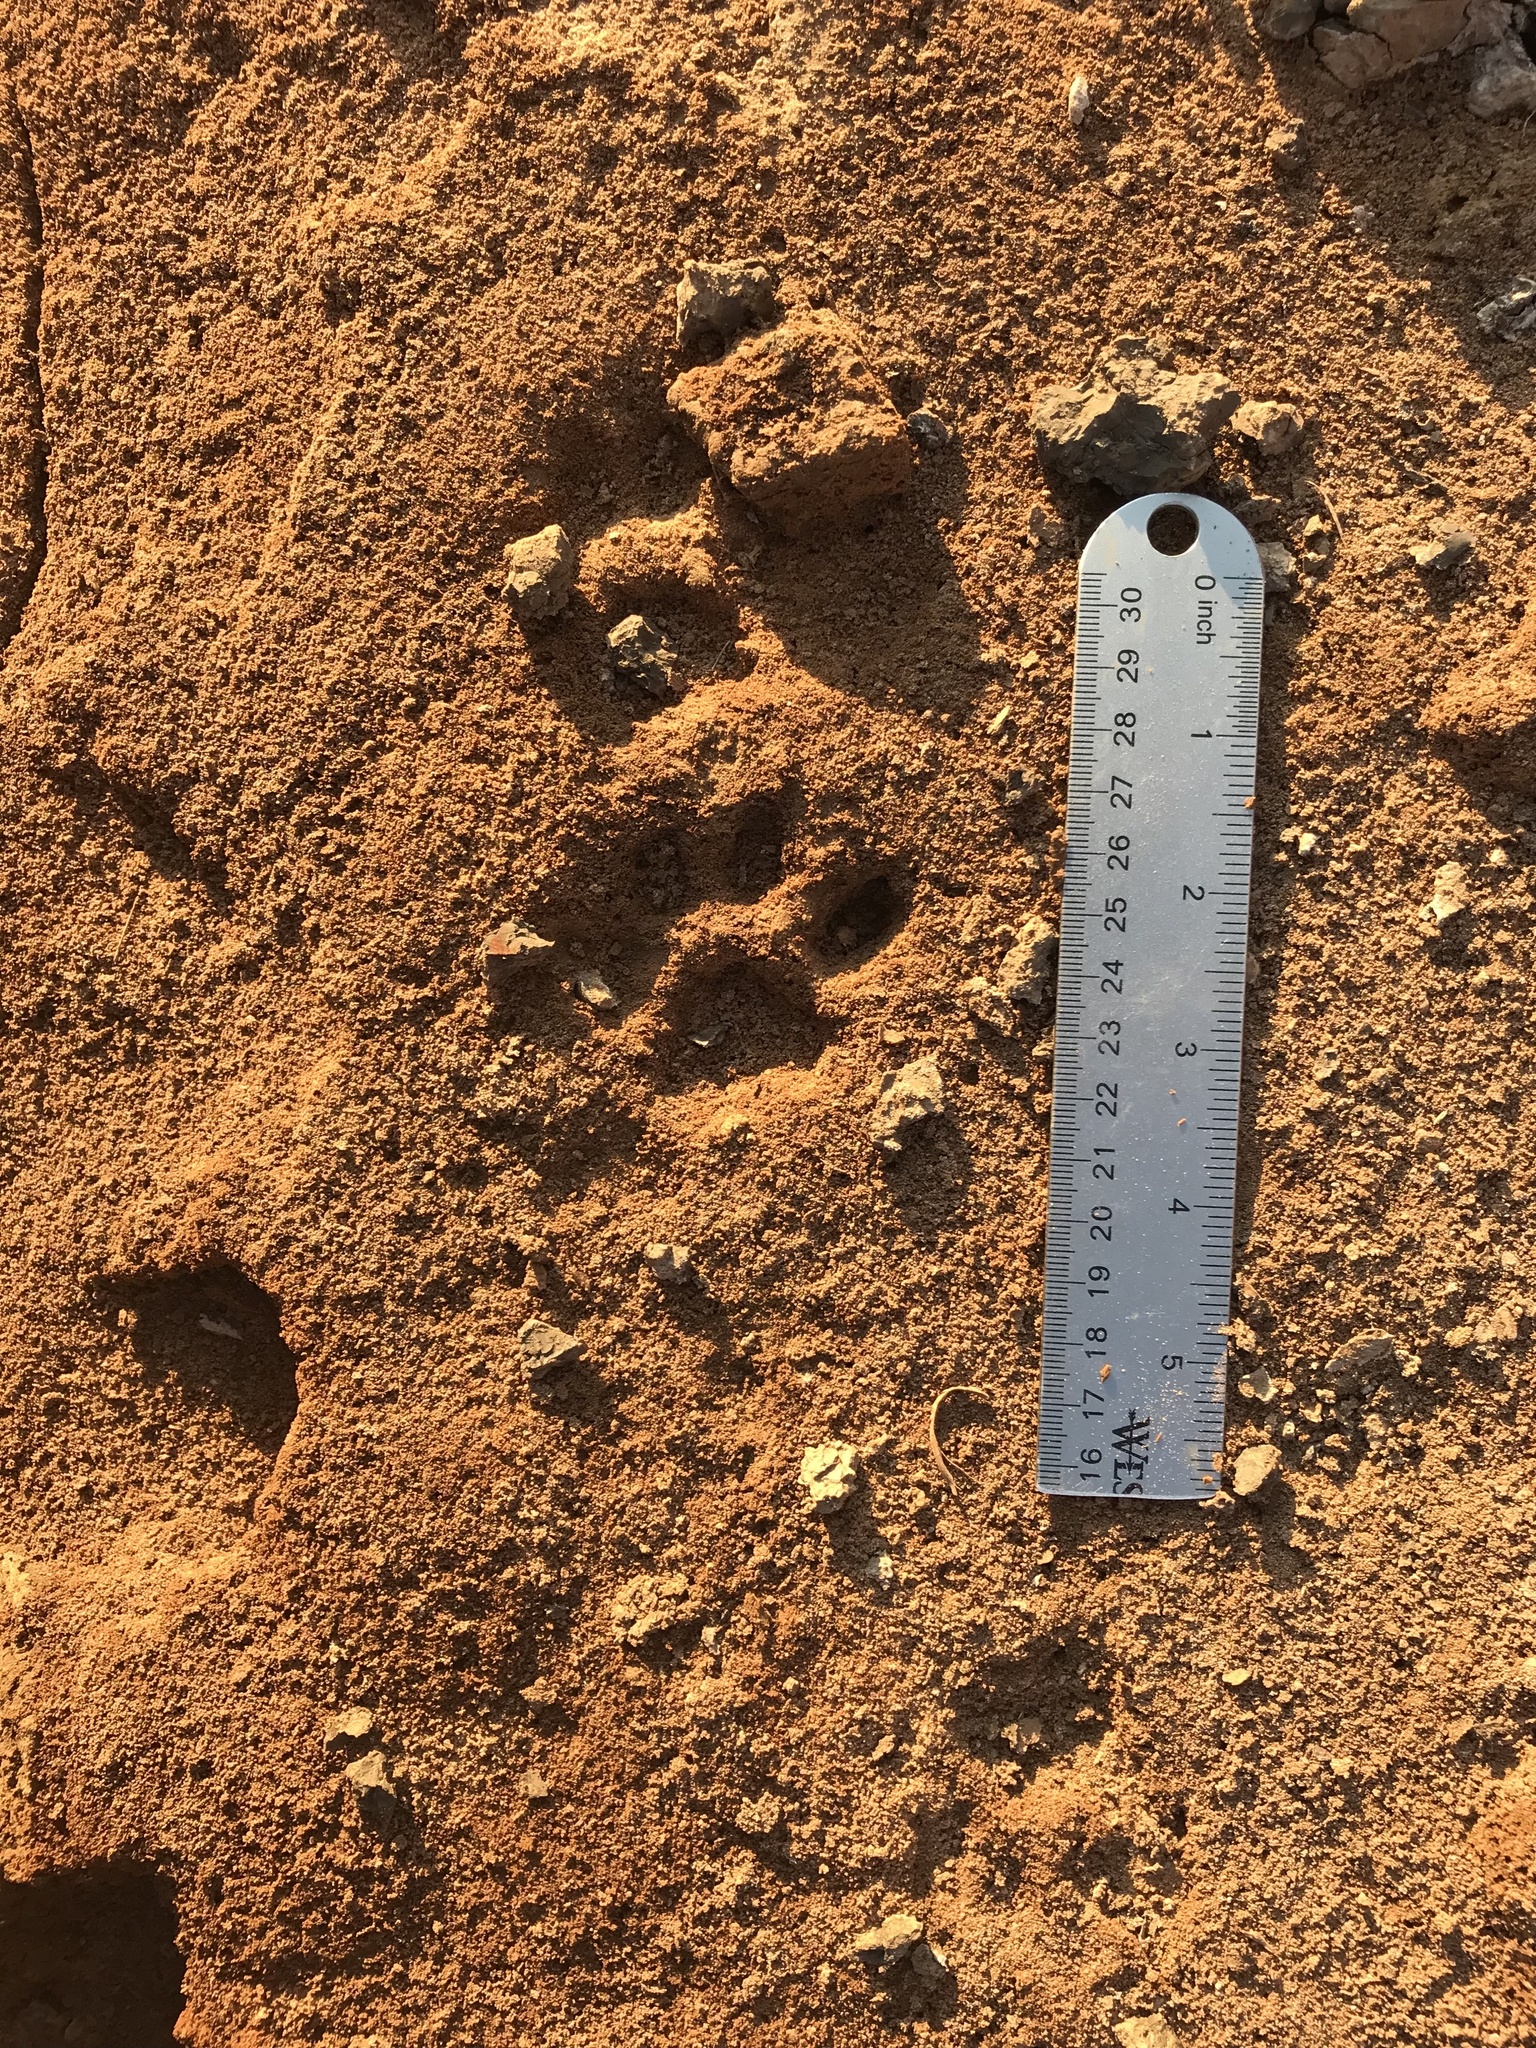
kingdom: Animalia
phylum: Chordata
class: Mammalia
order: Carnivora
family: Felidae
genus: Lynx
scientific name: Lynx rufus
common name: Bobcat
